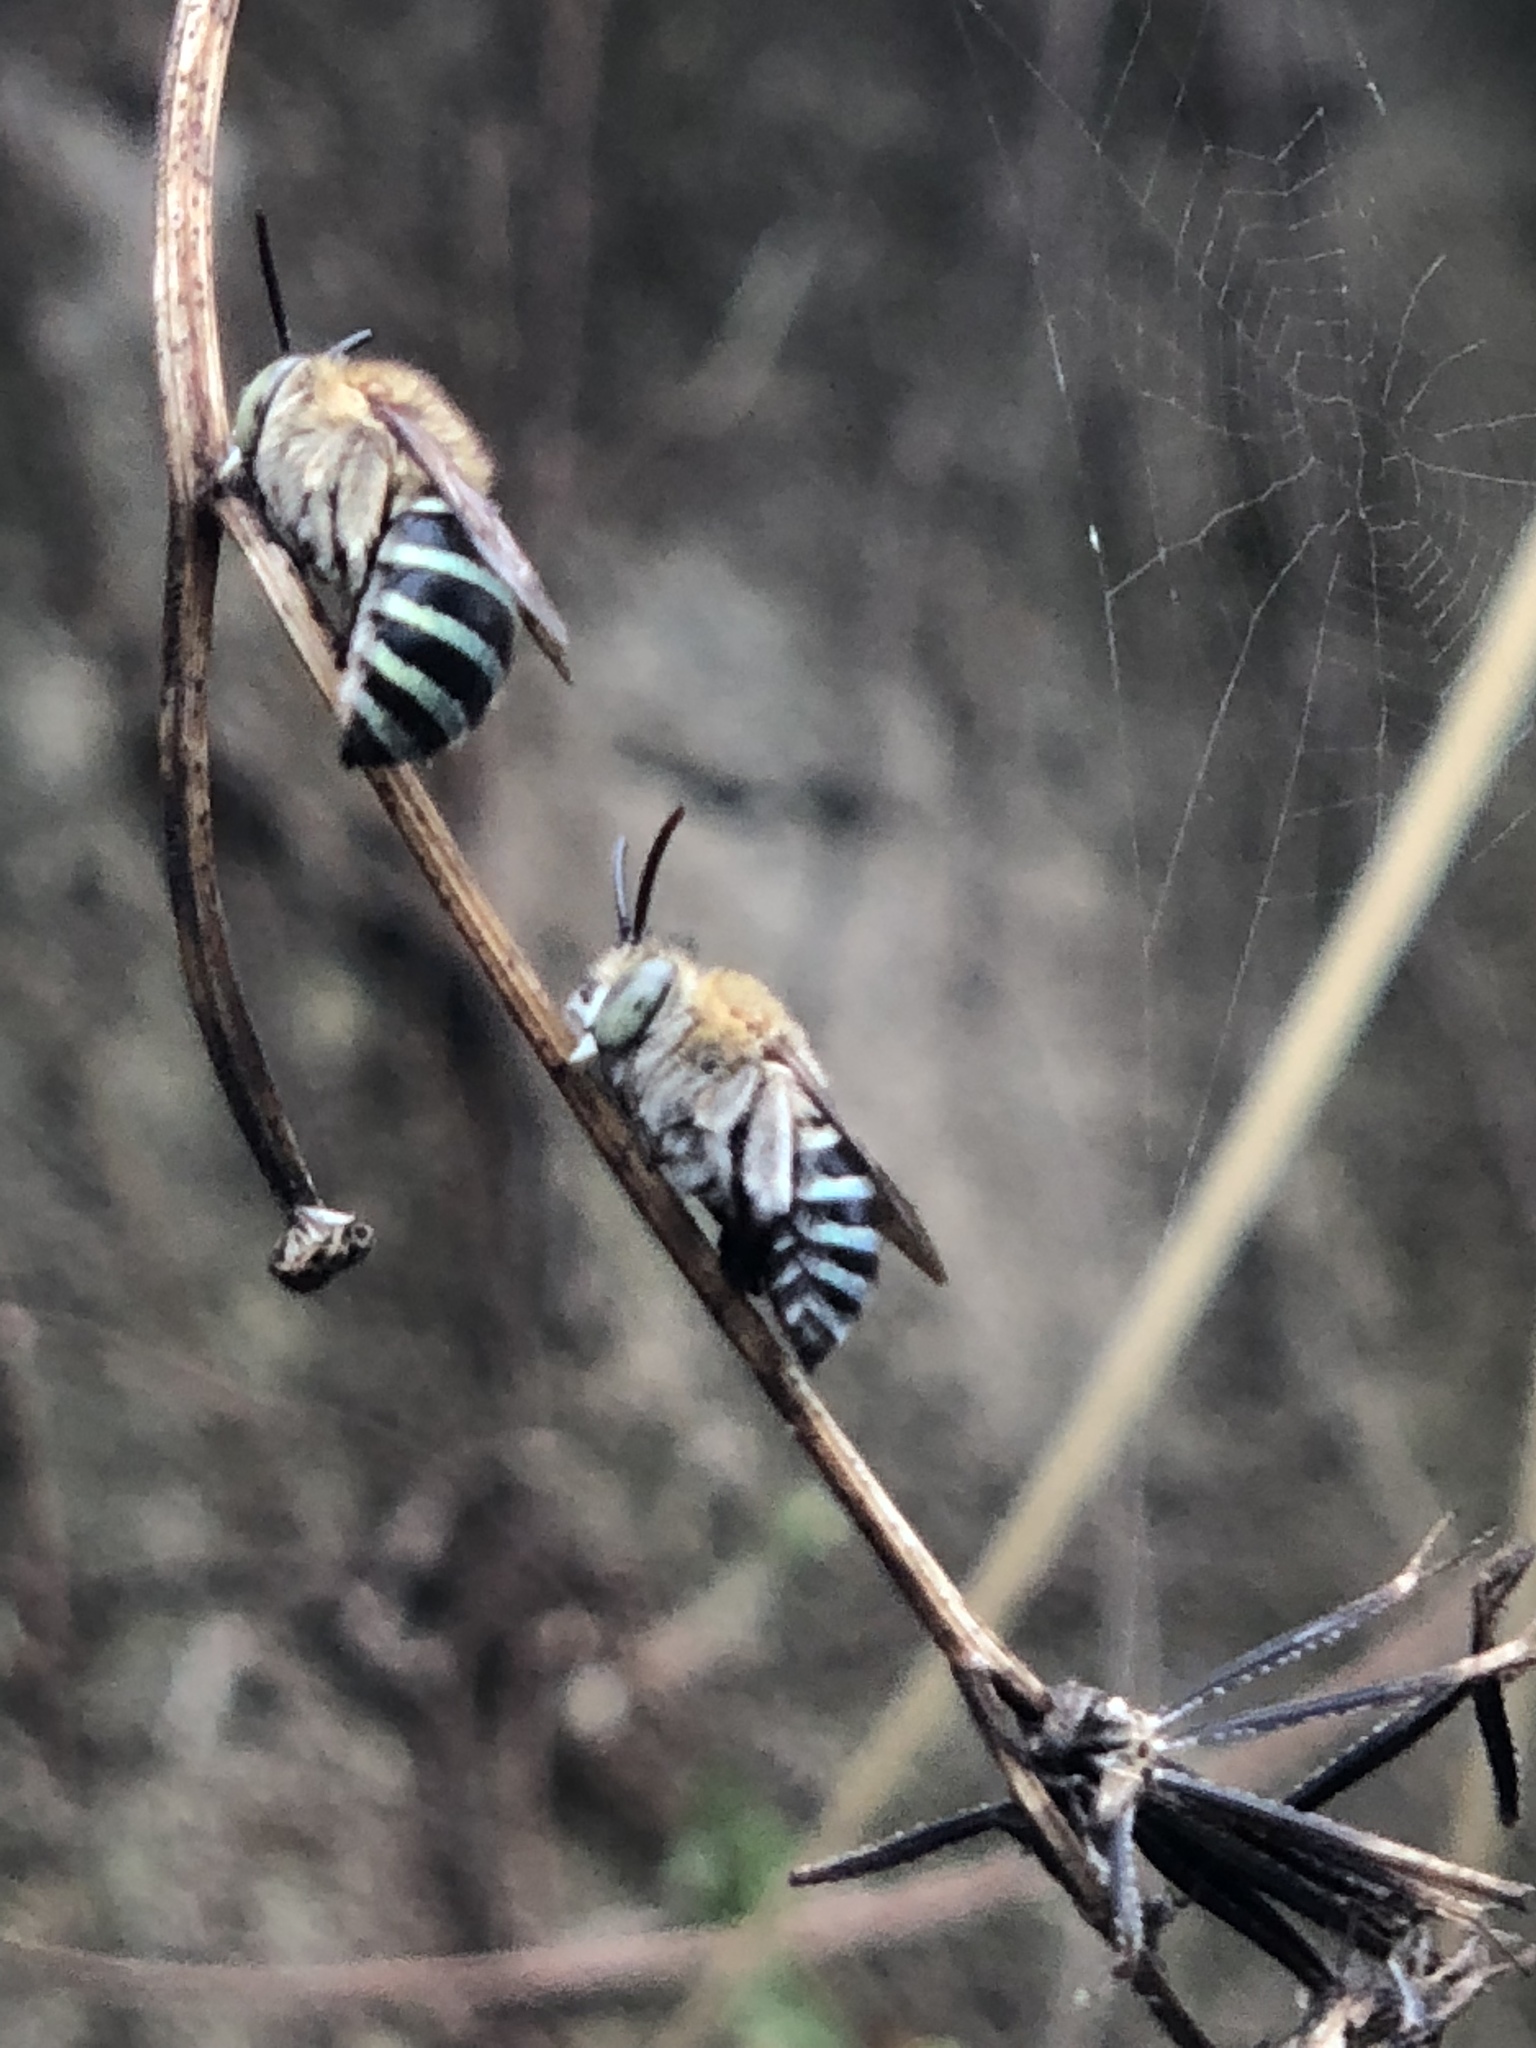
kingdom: Animalia
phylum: Arthropoda
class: Insecta
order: Hymenoptera
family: Apidae
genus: Amegilla
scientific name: Amegilla calceifera
